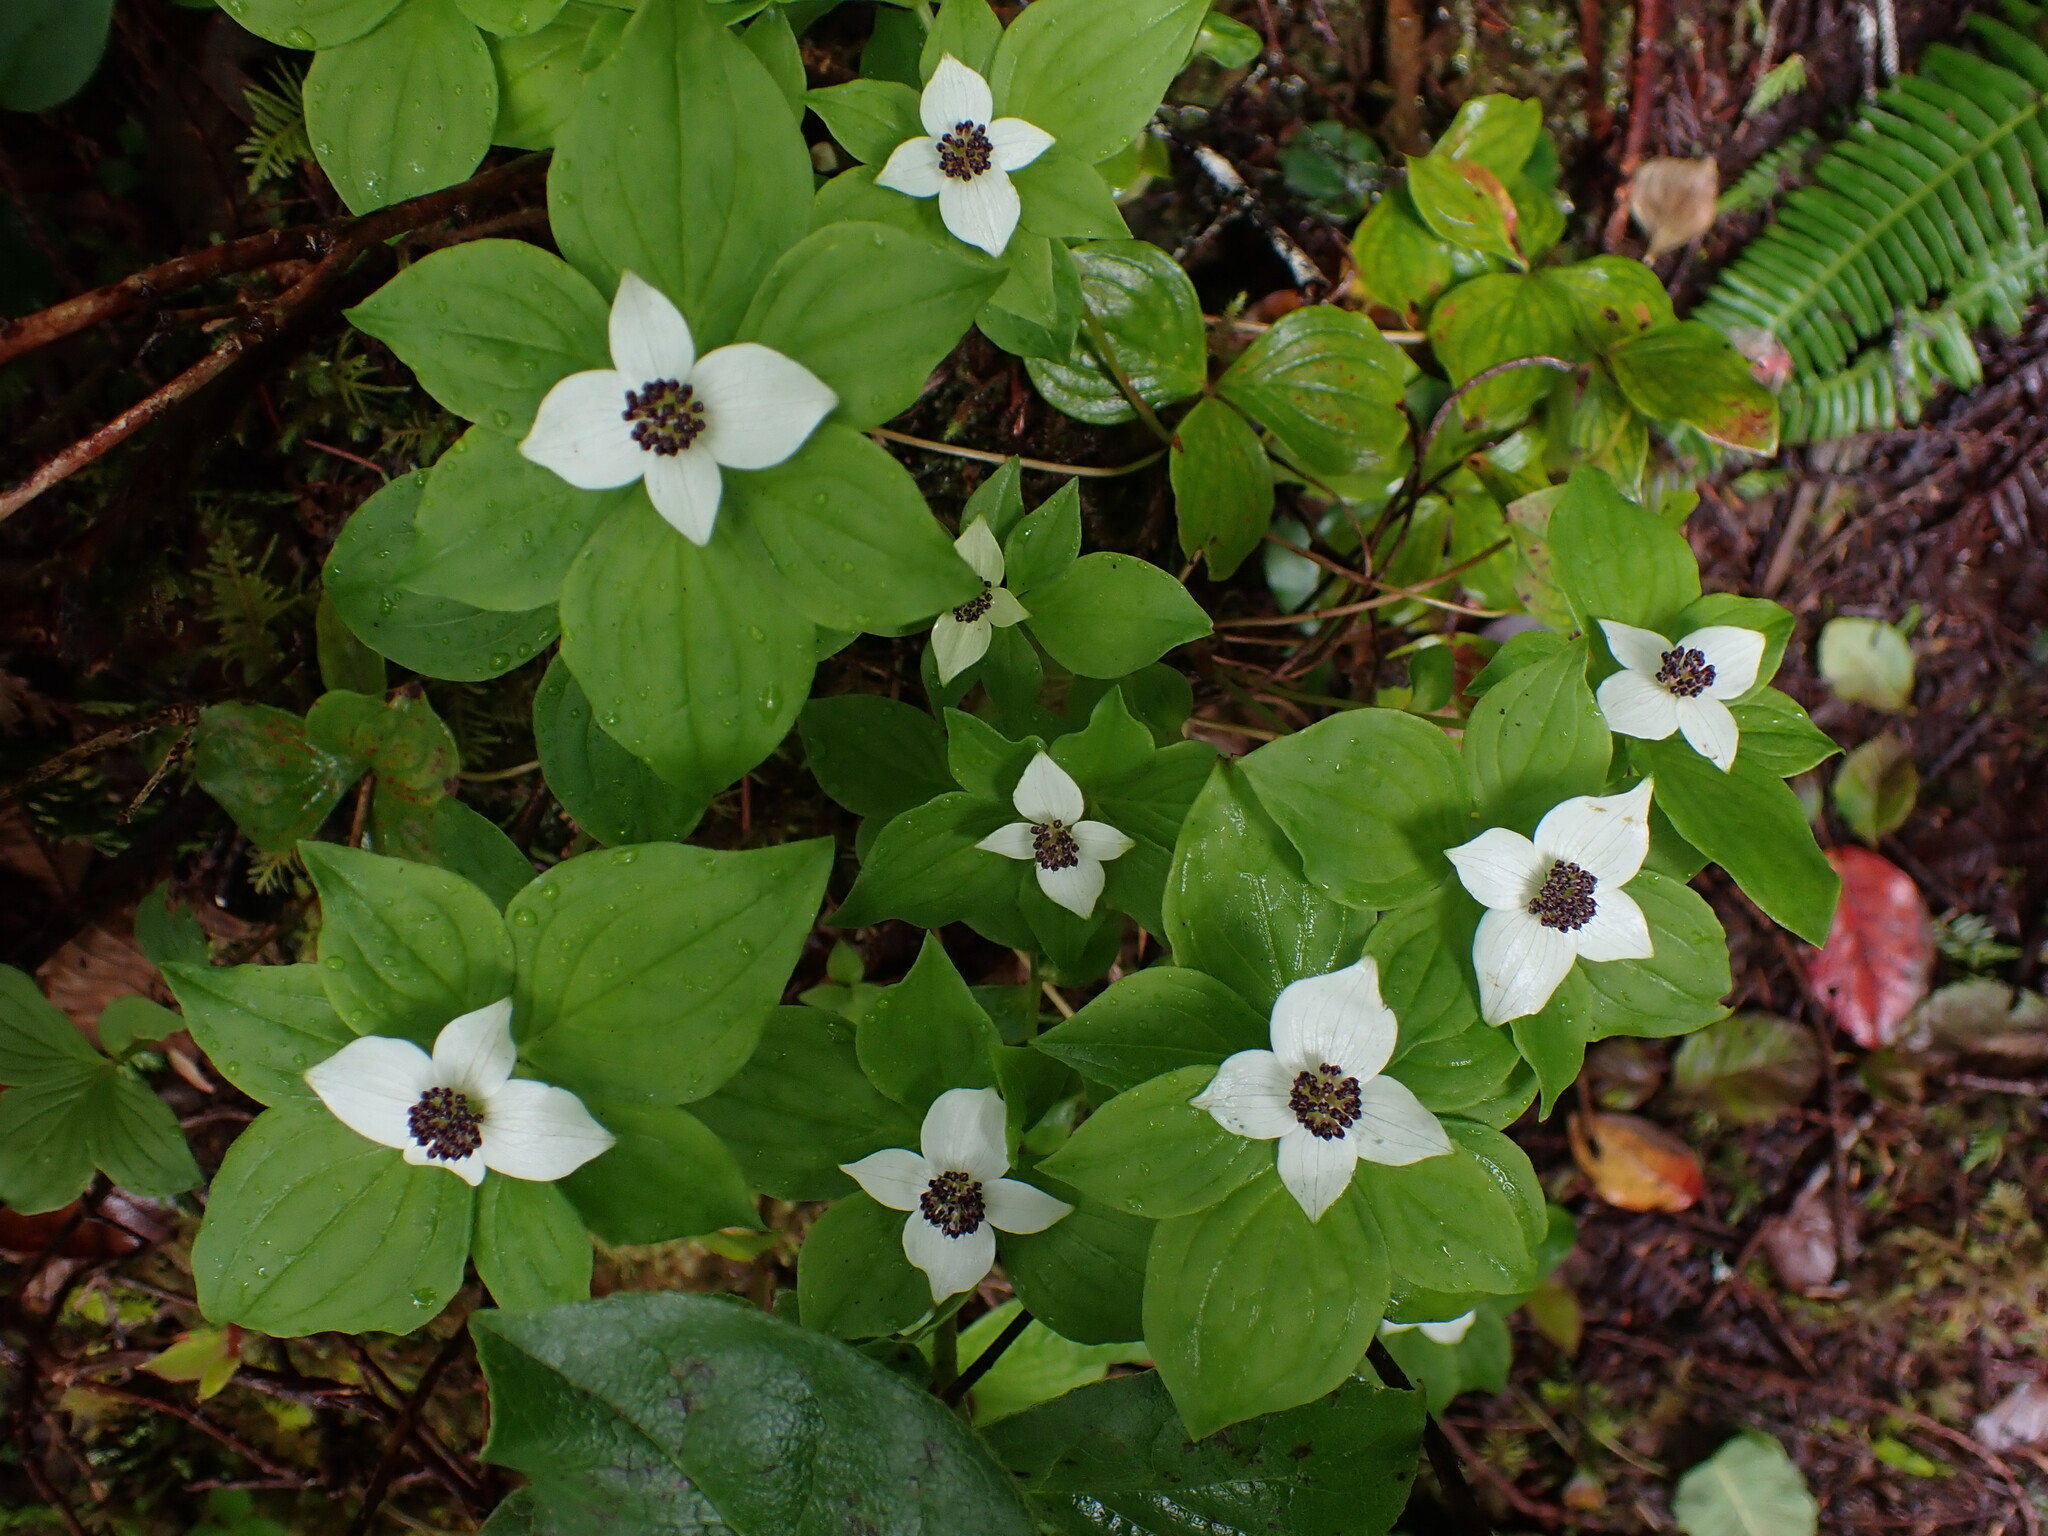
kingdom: Plantae
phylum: Tracheophyta
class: Magnoliopsida
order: Cornales
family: Cornaceae
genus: Cornus
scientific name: Cornus unalaschkensis
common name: Alaska bunchberry
